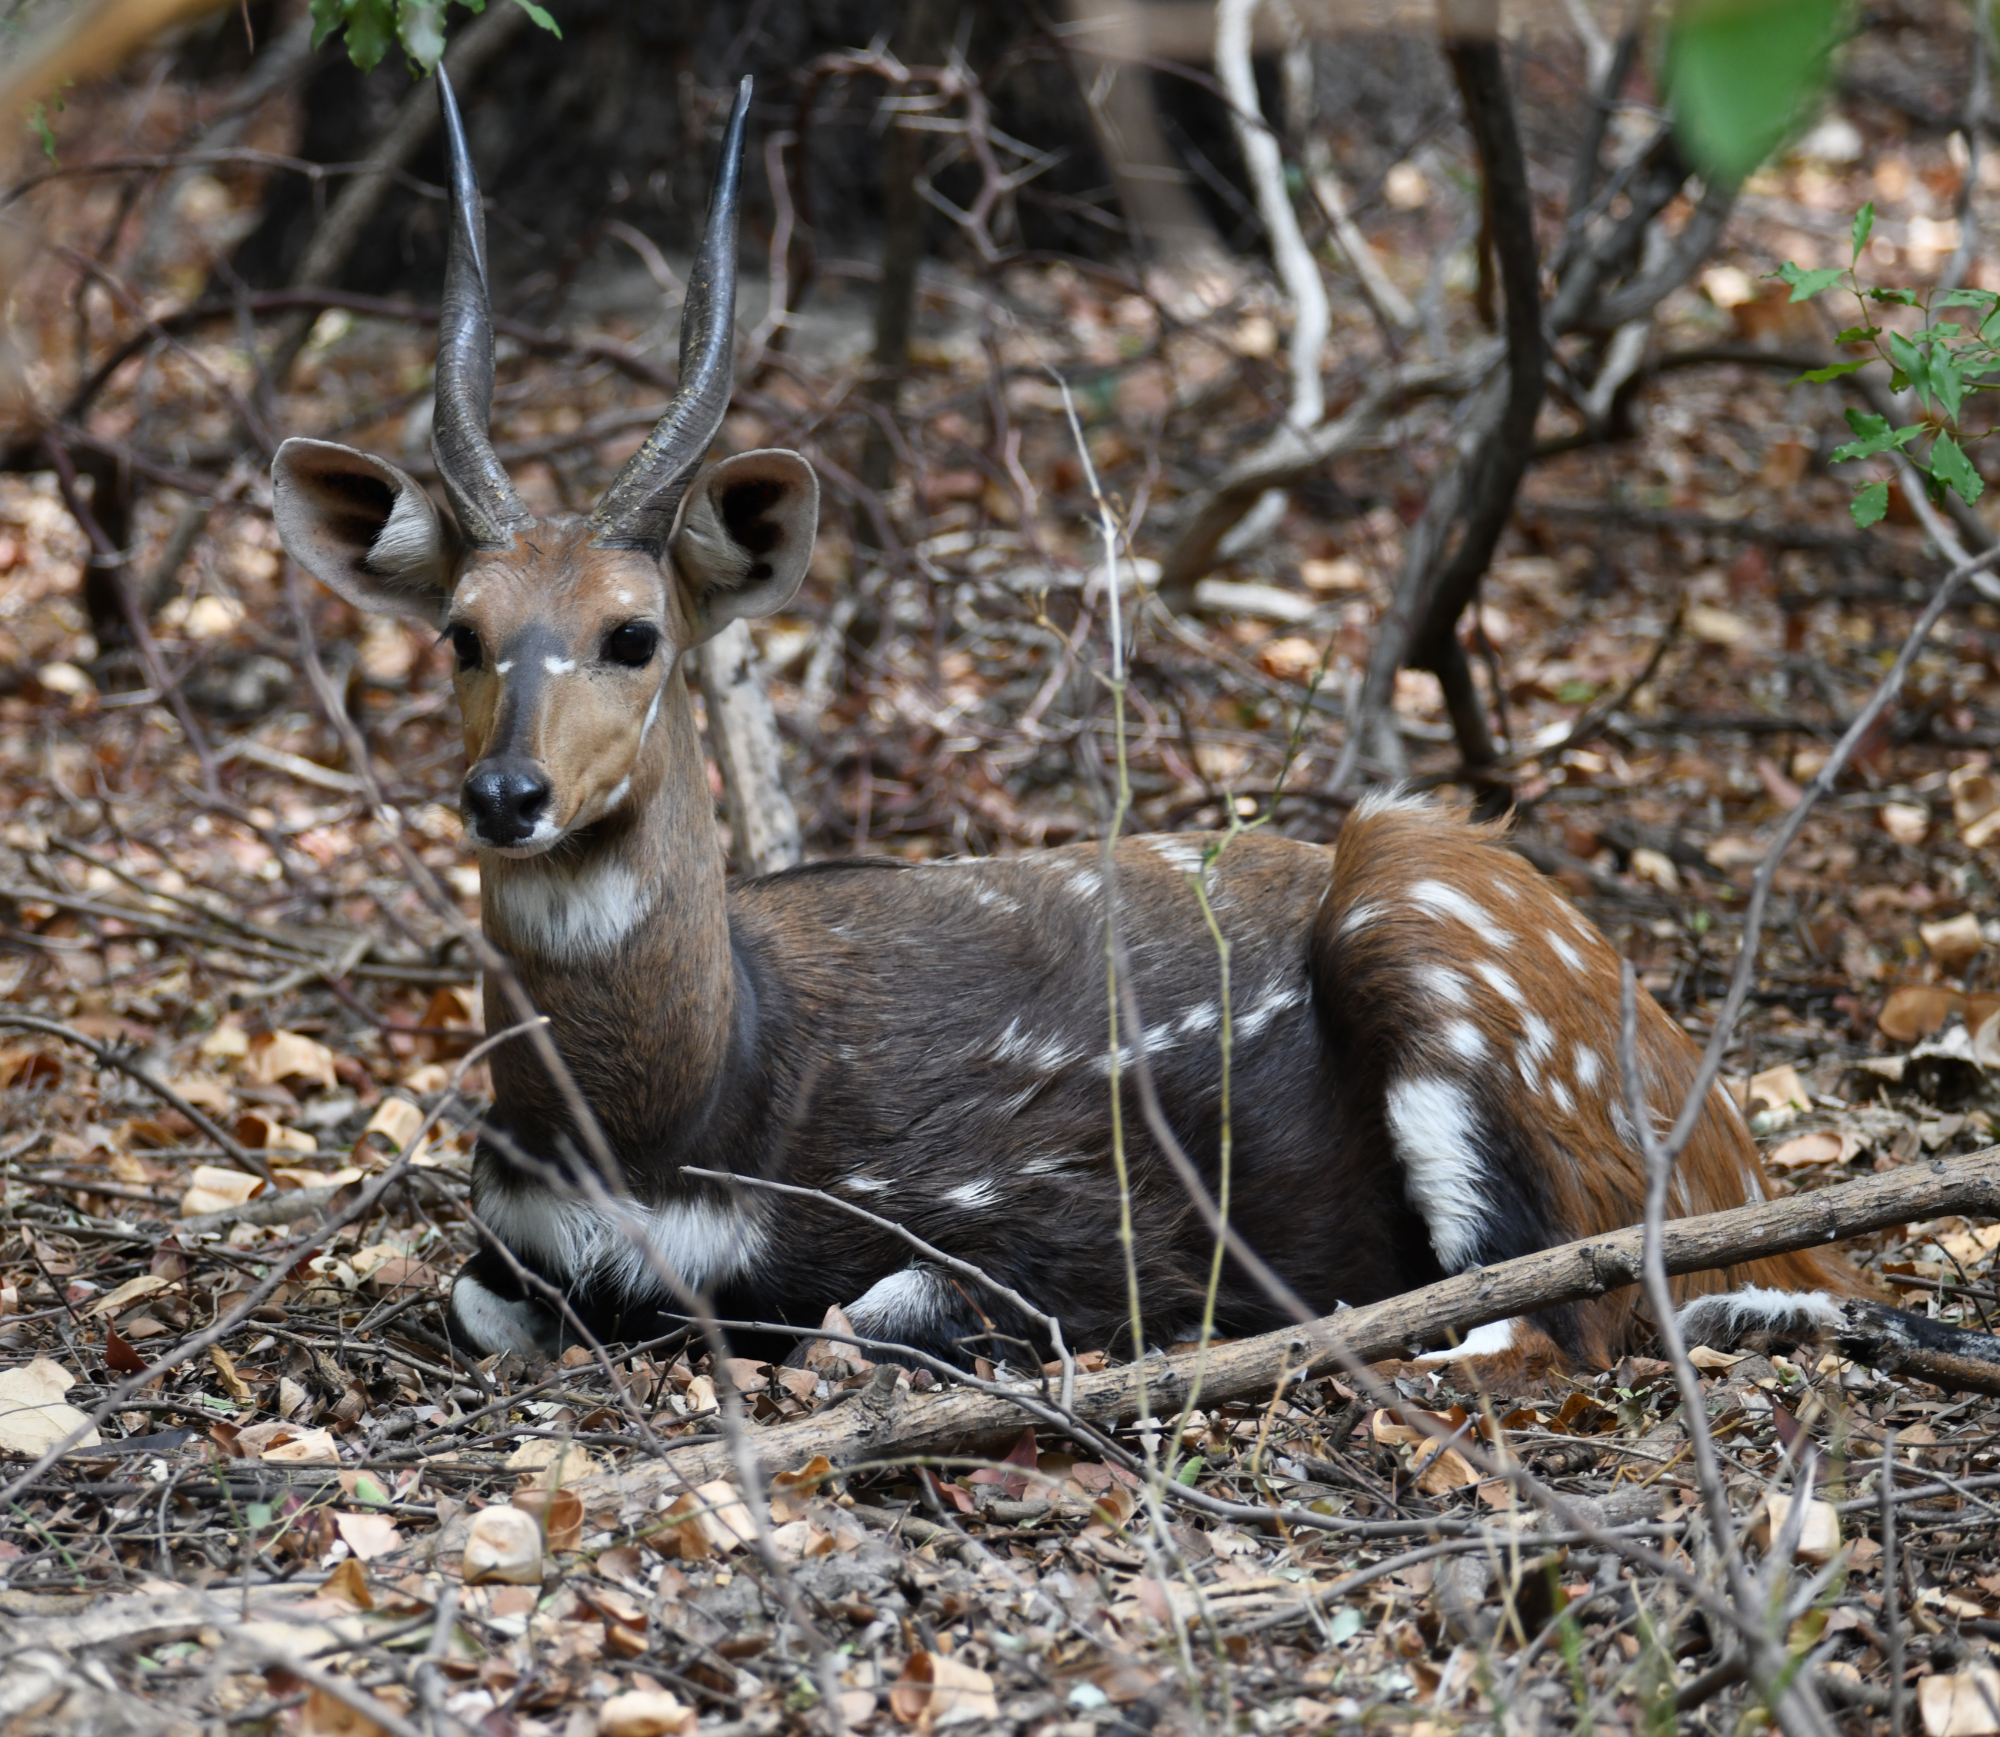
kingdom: Animalia
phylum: Chordata
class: Mammalia
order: Artiodactyla
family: Bovidae
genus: Tragelaphus
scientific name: Tragelaphus scriptus
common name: Bushbuck
